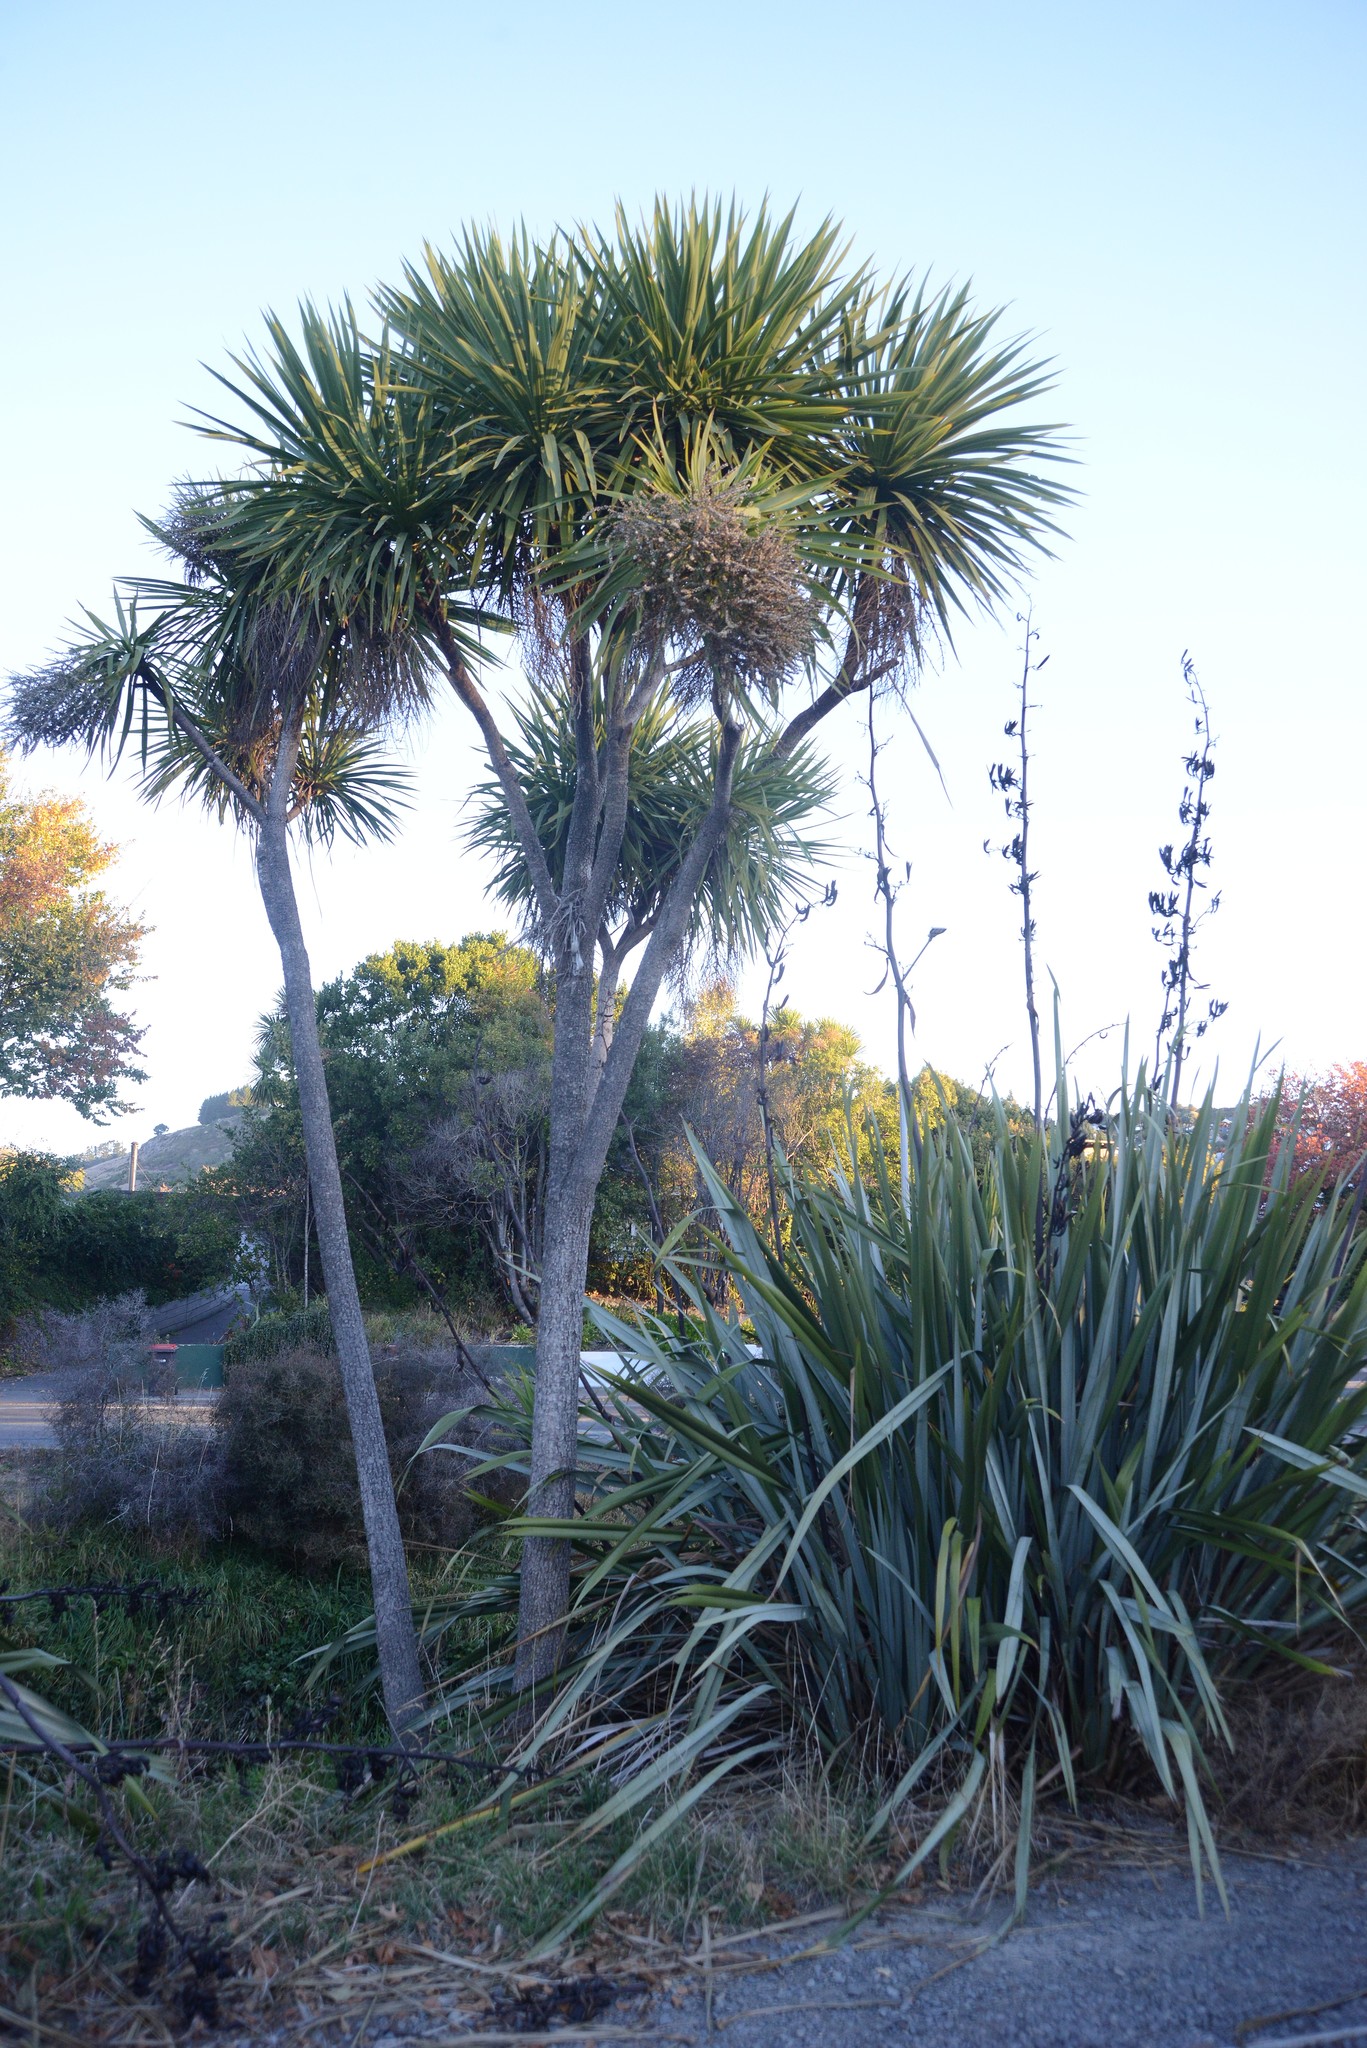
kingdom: Plantae
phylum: Tracheophyta
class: Liliopsida
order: Asparagales
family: Asparagaceae
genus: Cordyline
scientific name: Cordyline australis
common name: Cabbage-palm
